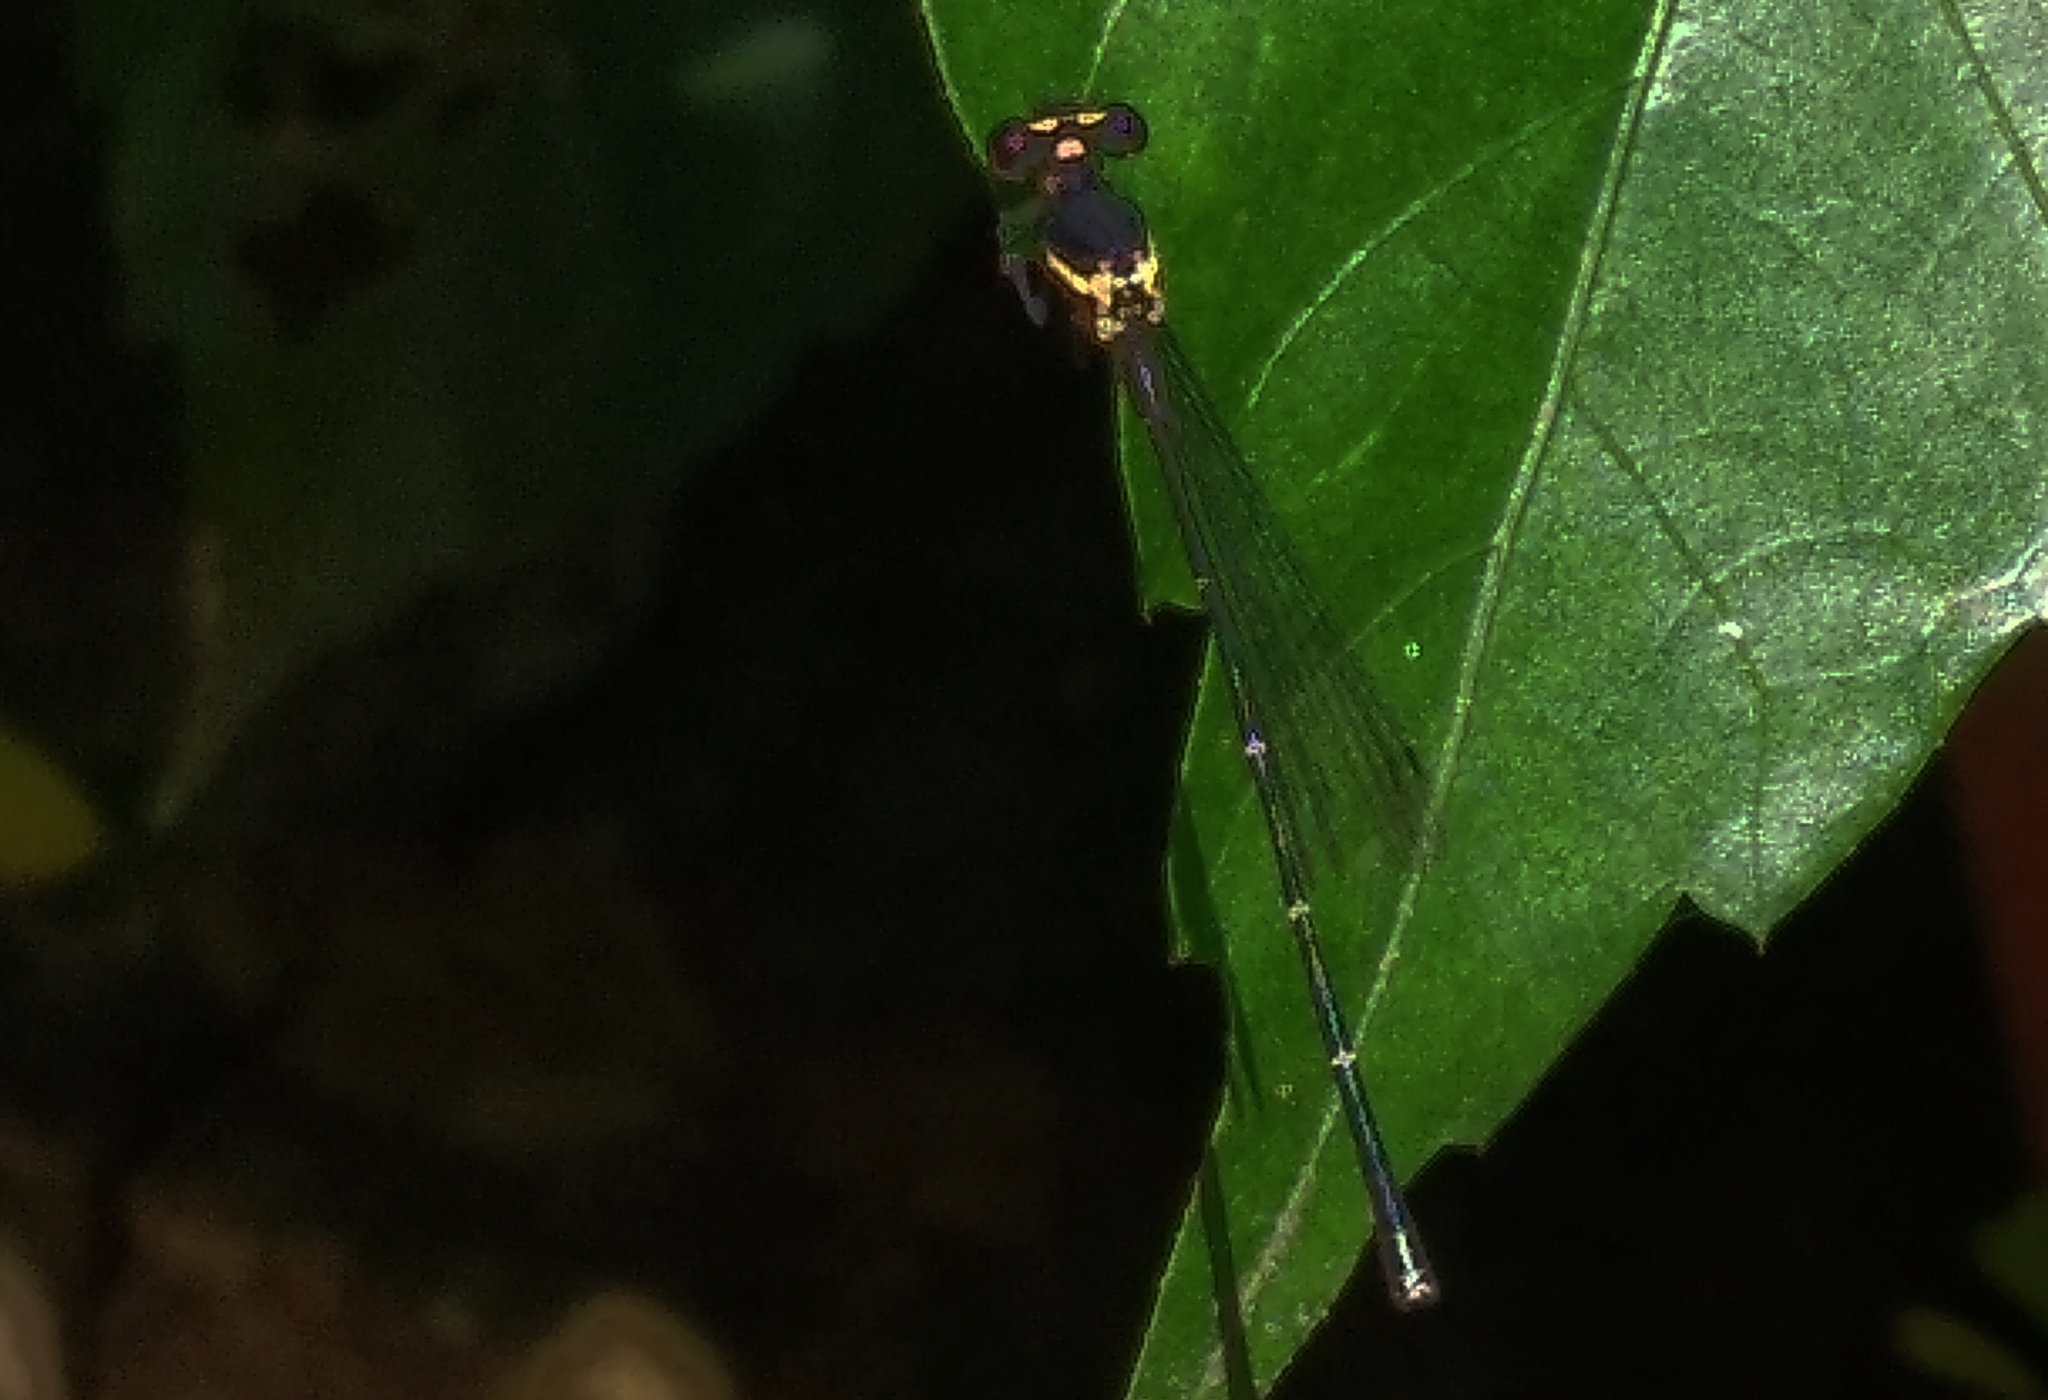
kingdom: Animalia
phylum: Arthropoda
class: Insecta
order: Odonata
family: Platycnemididae
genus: Onychargia
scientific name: Onychargia atrocyana
